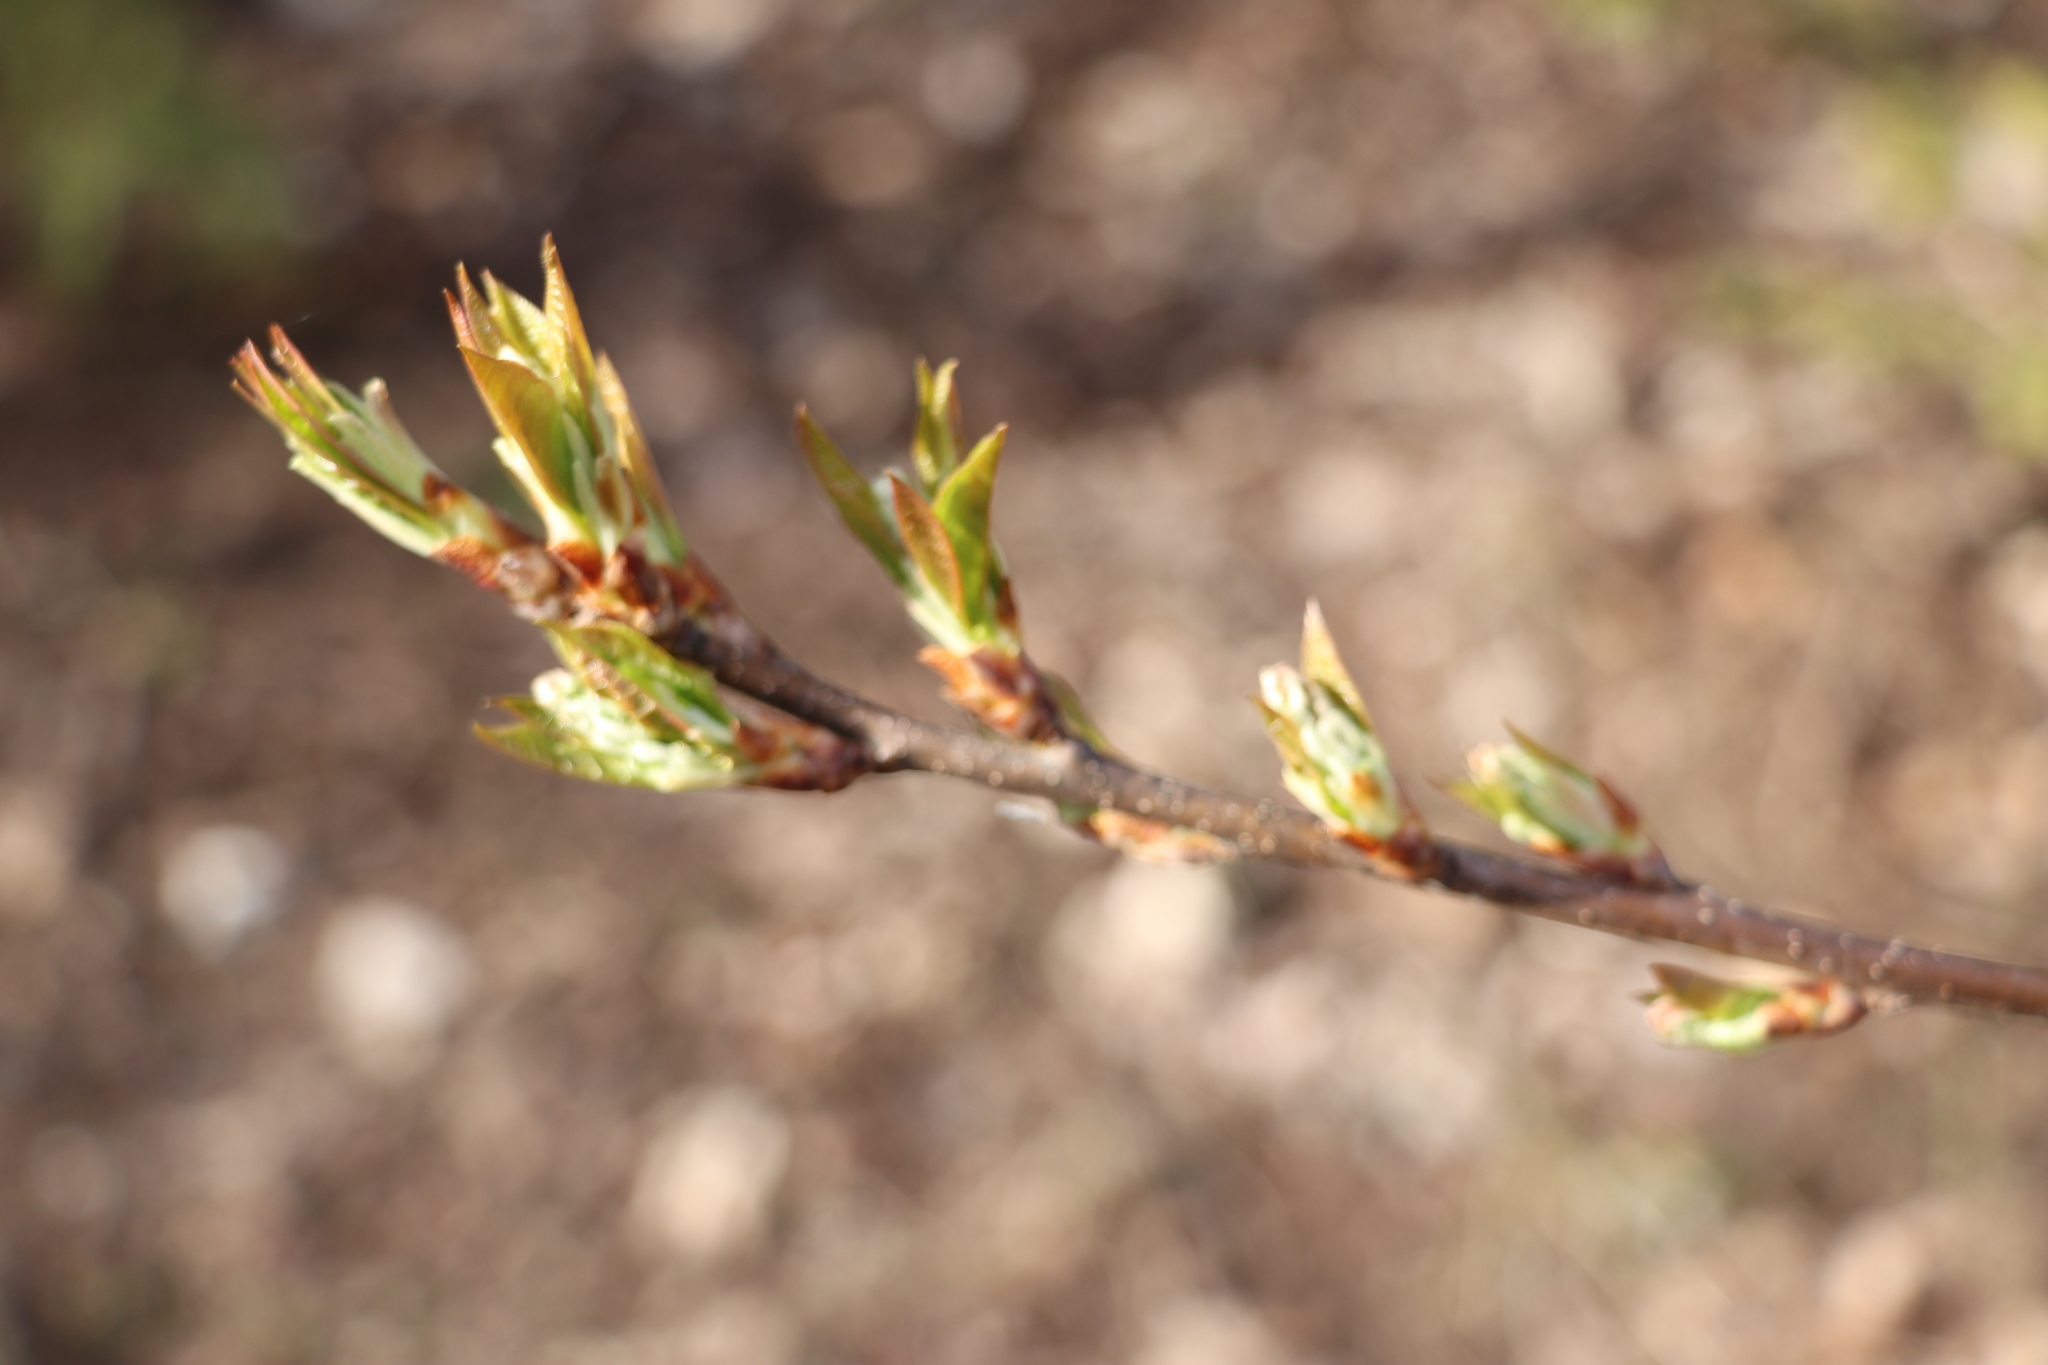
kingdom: Plantae
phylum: Tracheophyta
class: Magnoliopsida
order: Rosales
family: Rosaceae
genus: Prunus
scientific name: Prunus padus
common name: Bird cherry
